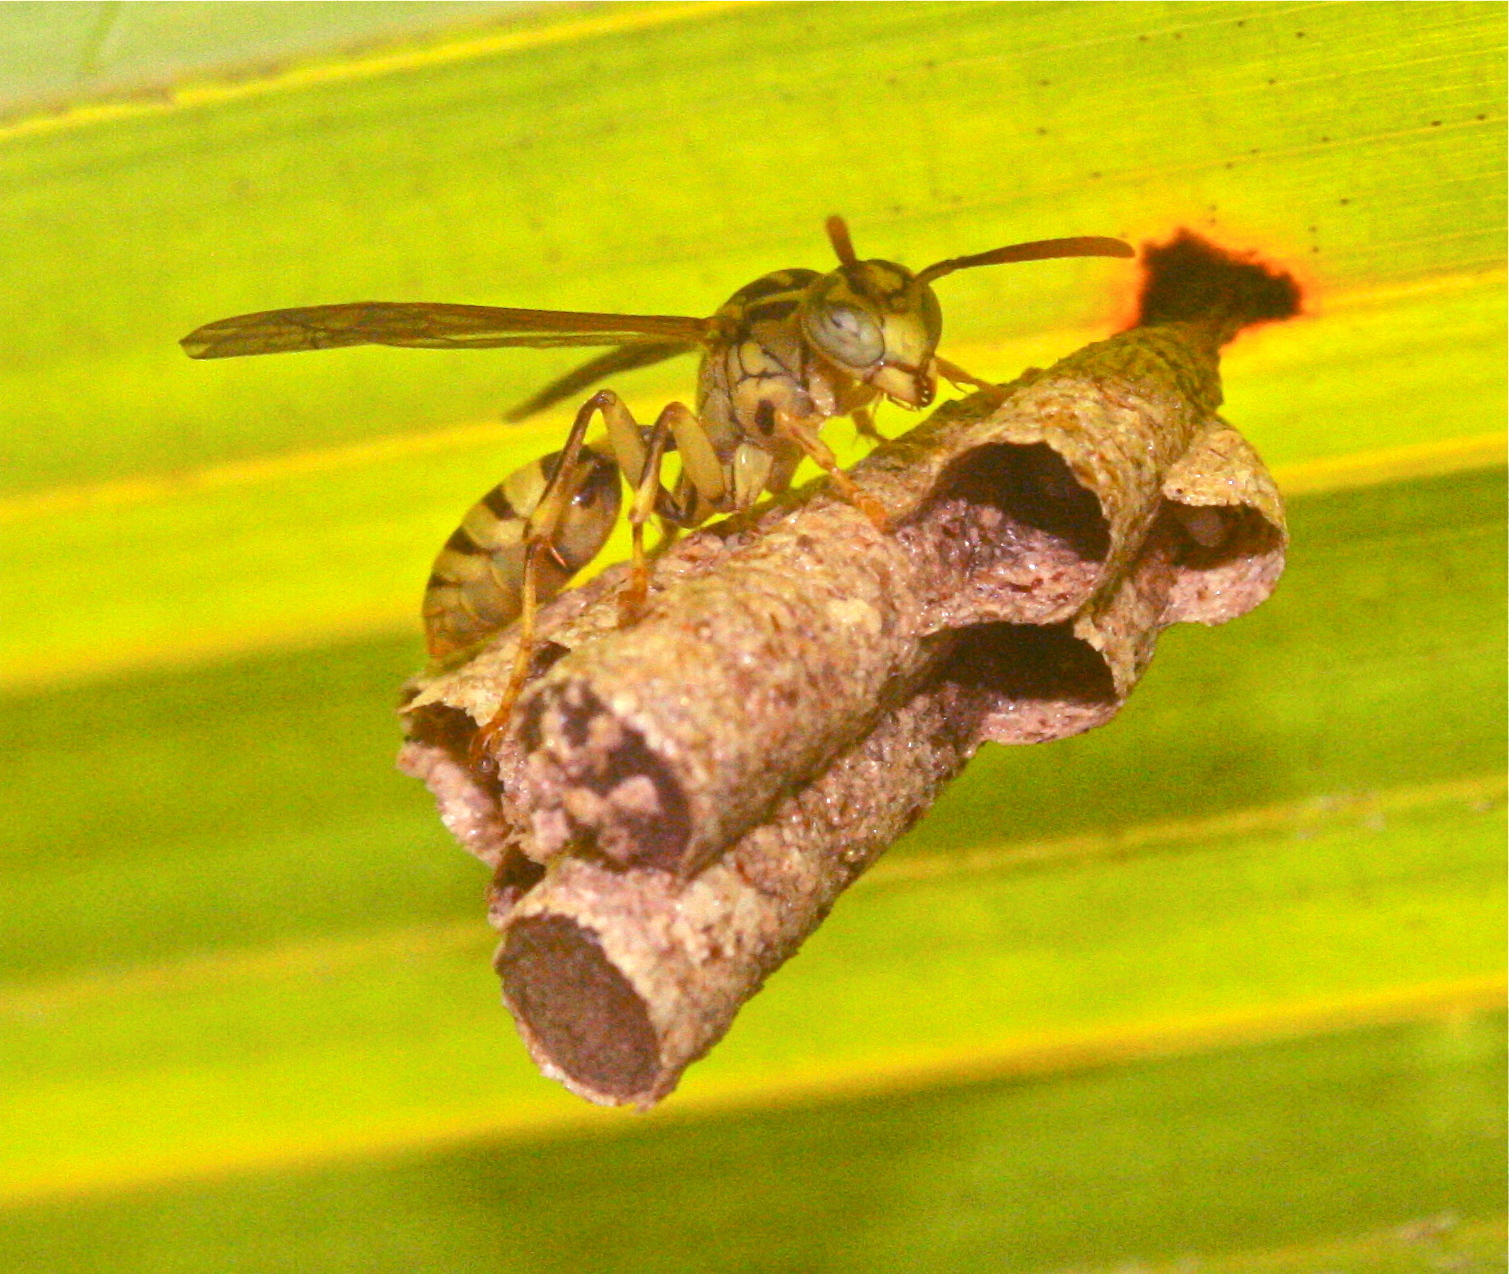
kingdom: Animalia
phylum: Arthropoda
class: Insecta
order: Hymenoptera
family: Vespidae
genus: Mischocyttarus
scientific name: Mischocyttarus basimacula
